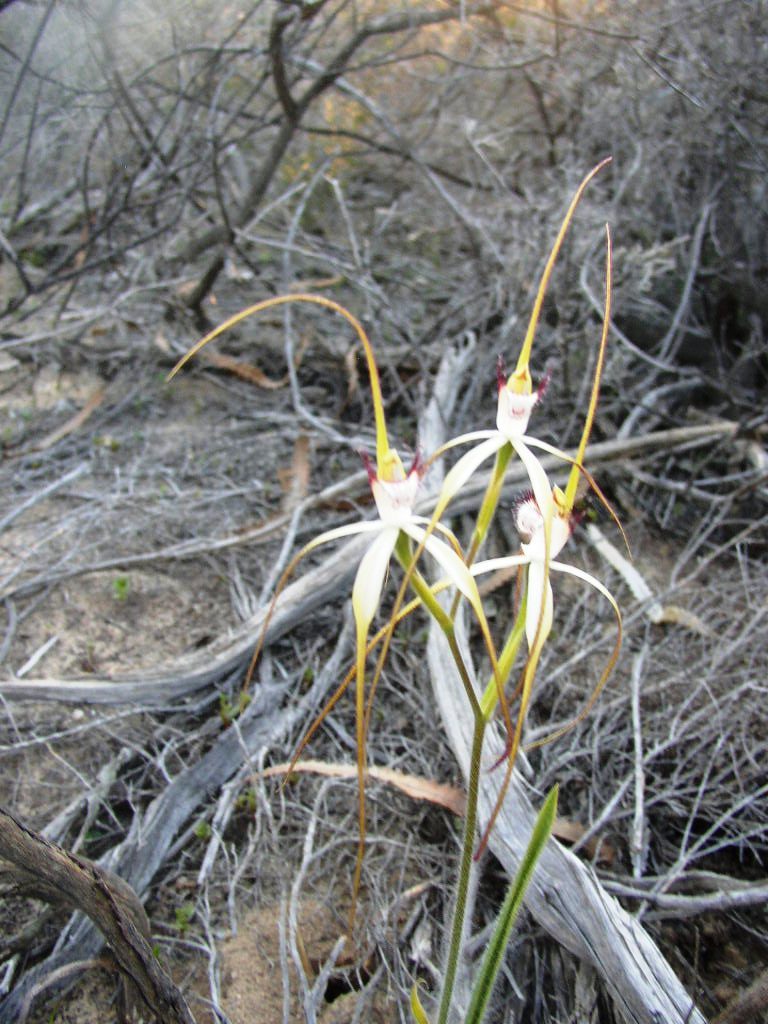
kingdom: Plantae
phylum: Tracheophyta
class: Liliopsida
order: Asparagales
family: Orchidaceae
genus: Caladenia
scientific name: Caladenia longicauda
